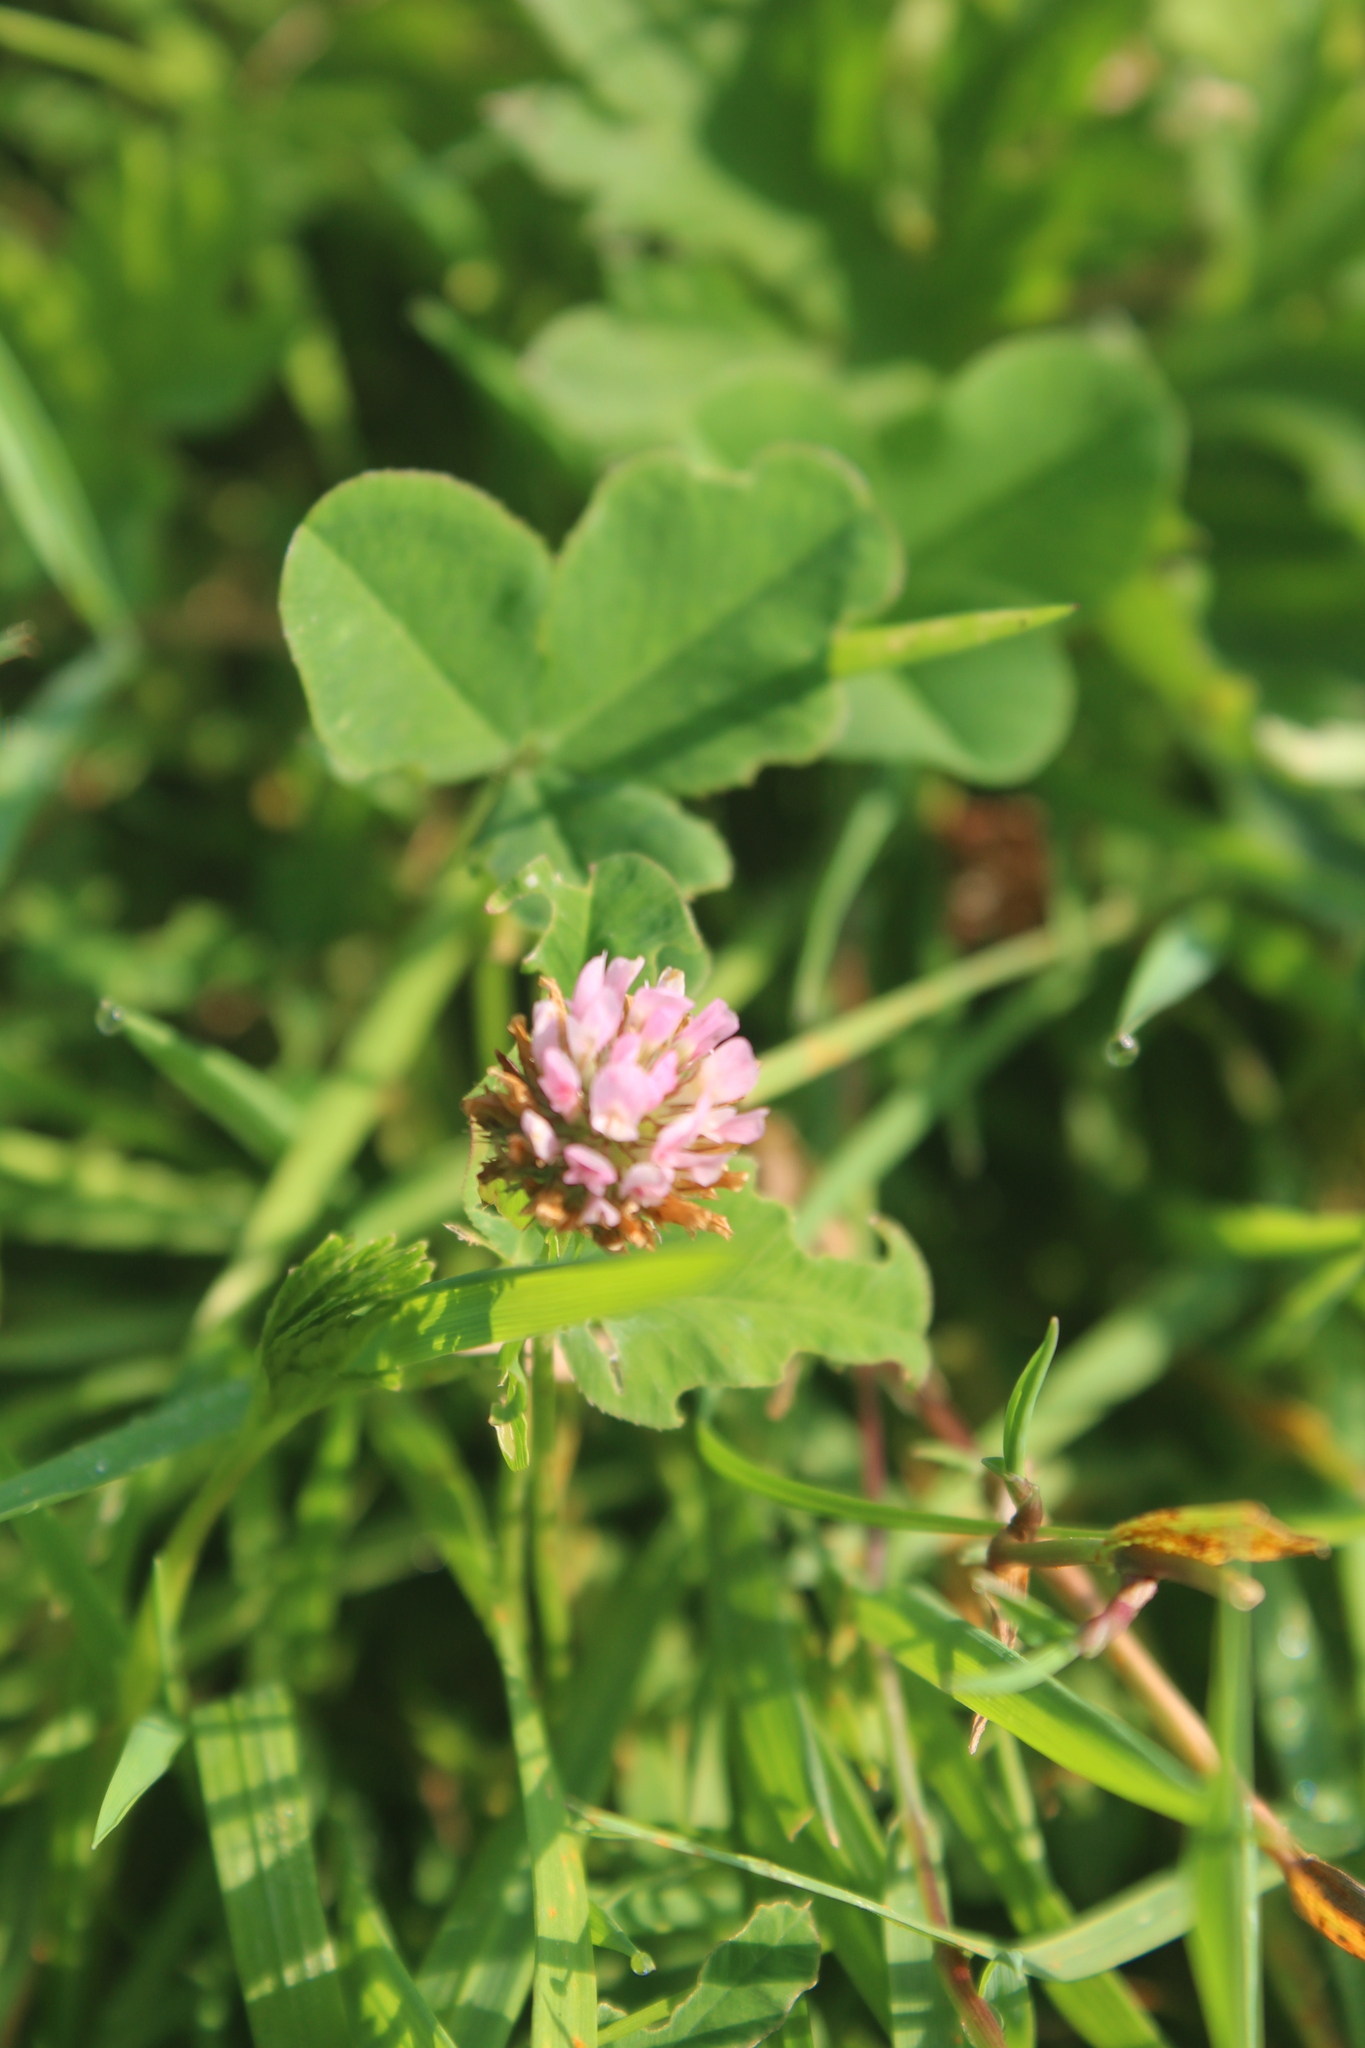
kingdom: Plantae
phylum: Tracheophyta
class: Magnoliopsida
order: Fabales
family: Fabaceae
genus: Trifolium
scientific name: Trifolium fragiferum
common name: Strawberry clover
